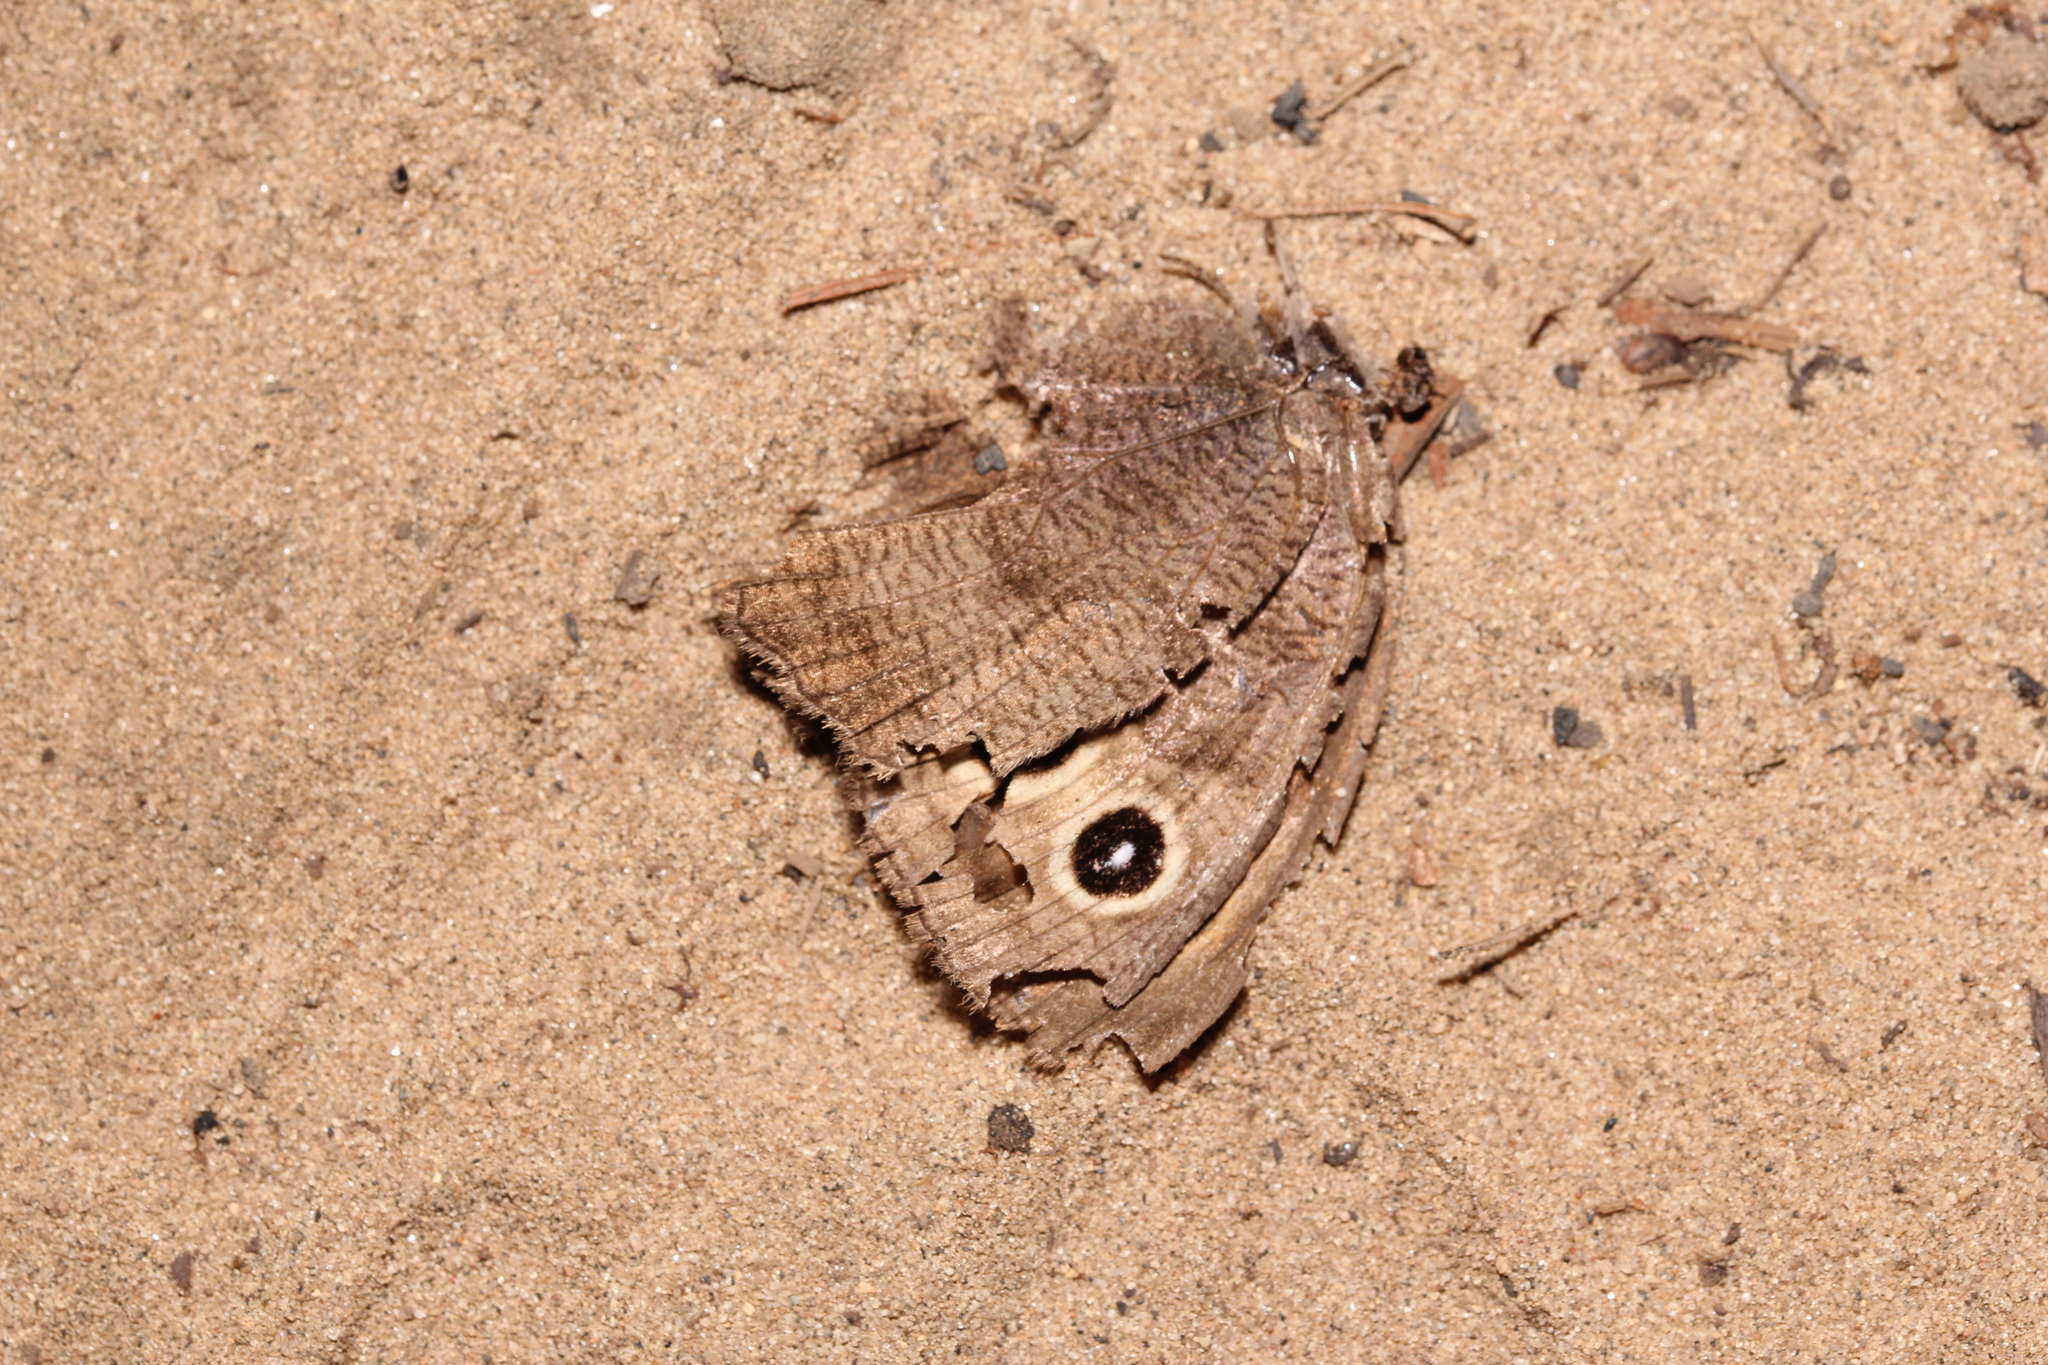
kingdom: Animalia
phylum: Arthropoda
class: Insecta
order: Lepidoptera
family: Nymphalidae
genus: Cercyonis
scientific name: Cercyonis pegala
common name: Common wood-nymph
